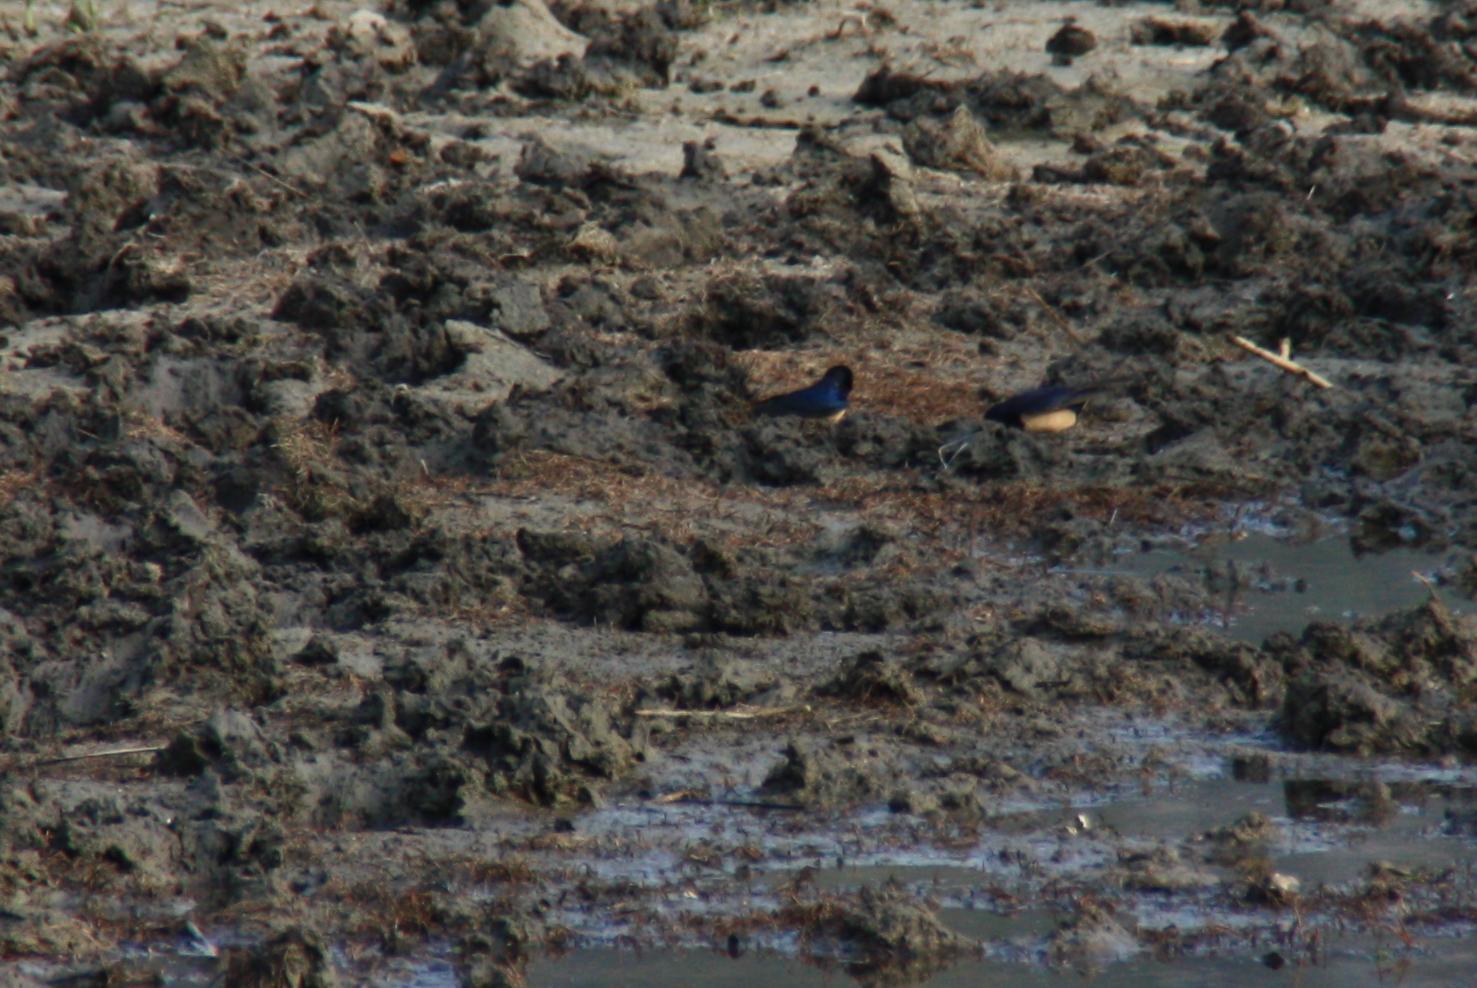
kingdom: Animalia
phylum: Chordata
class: Aves
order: Passeriformes
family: Hirundinidae
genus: Hirundo
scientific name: Hirundo rustica
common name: Barn swallow
